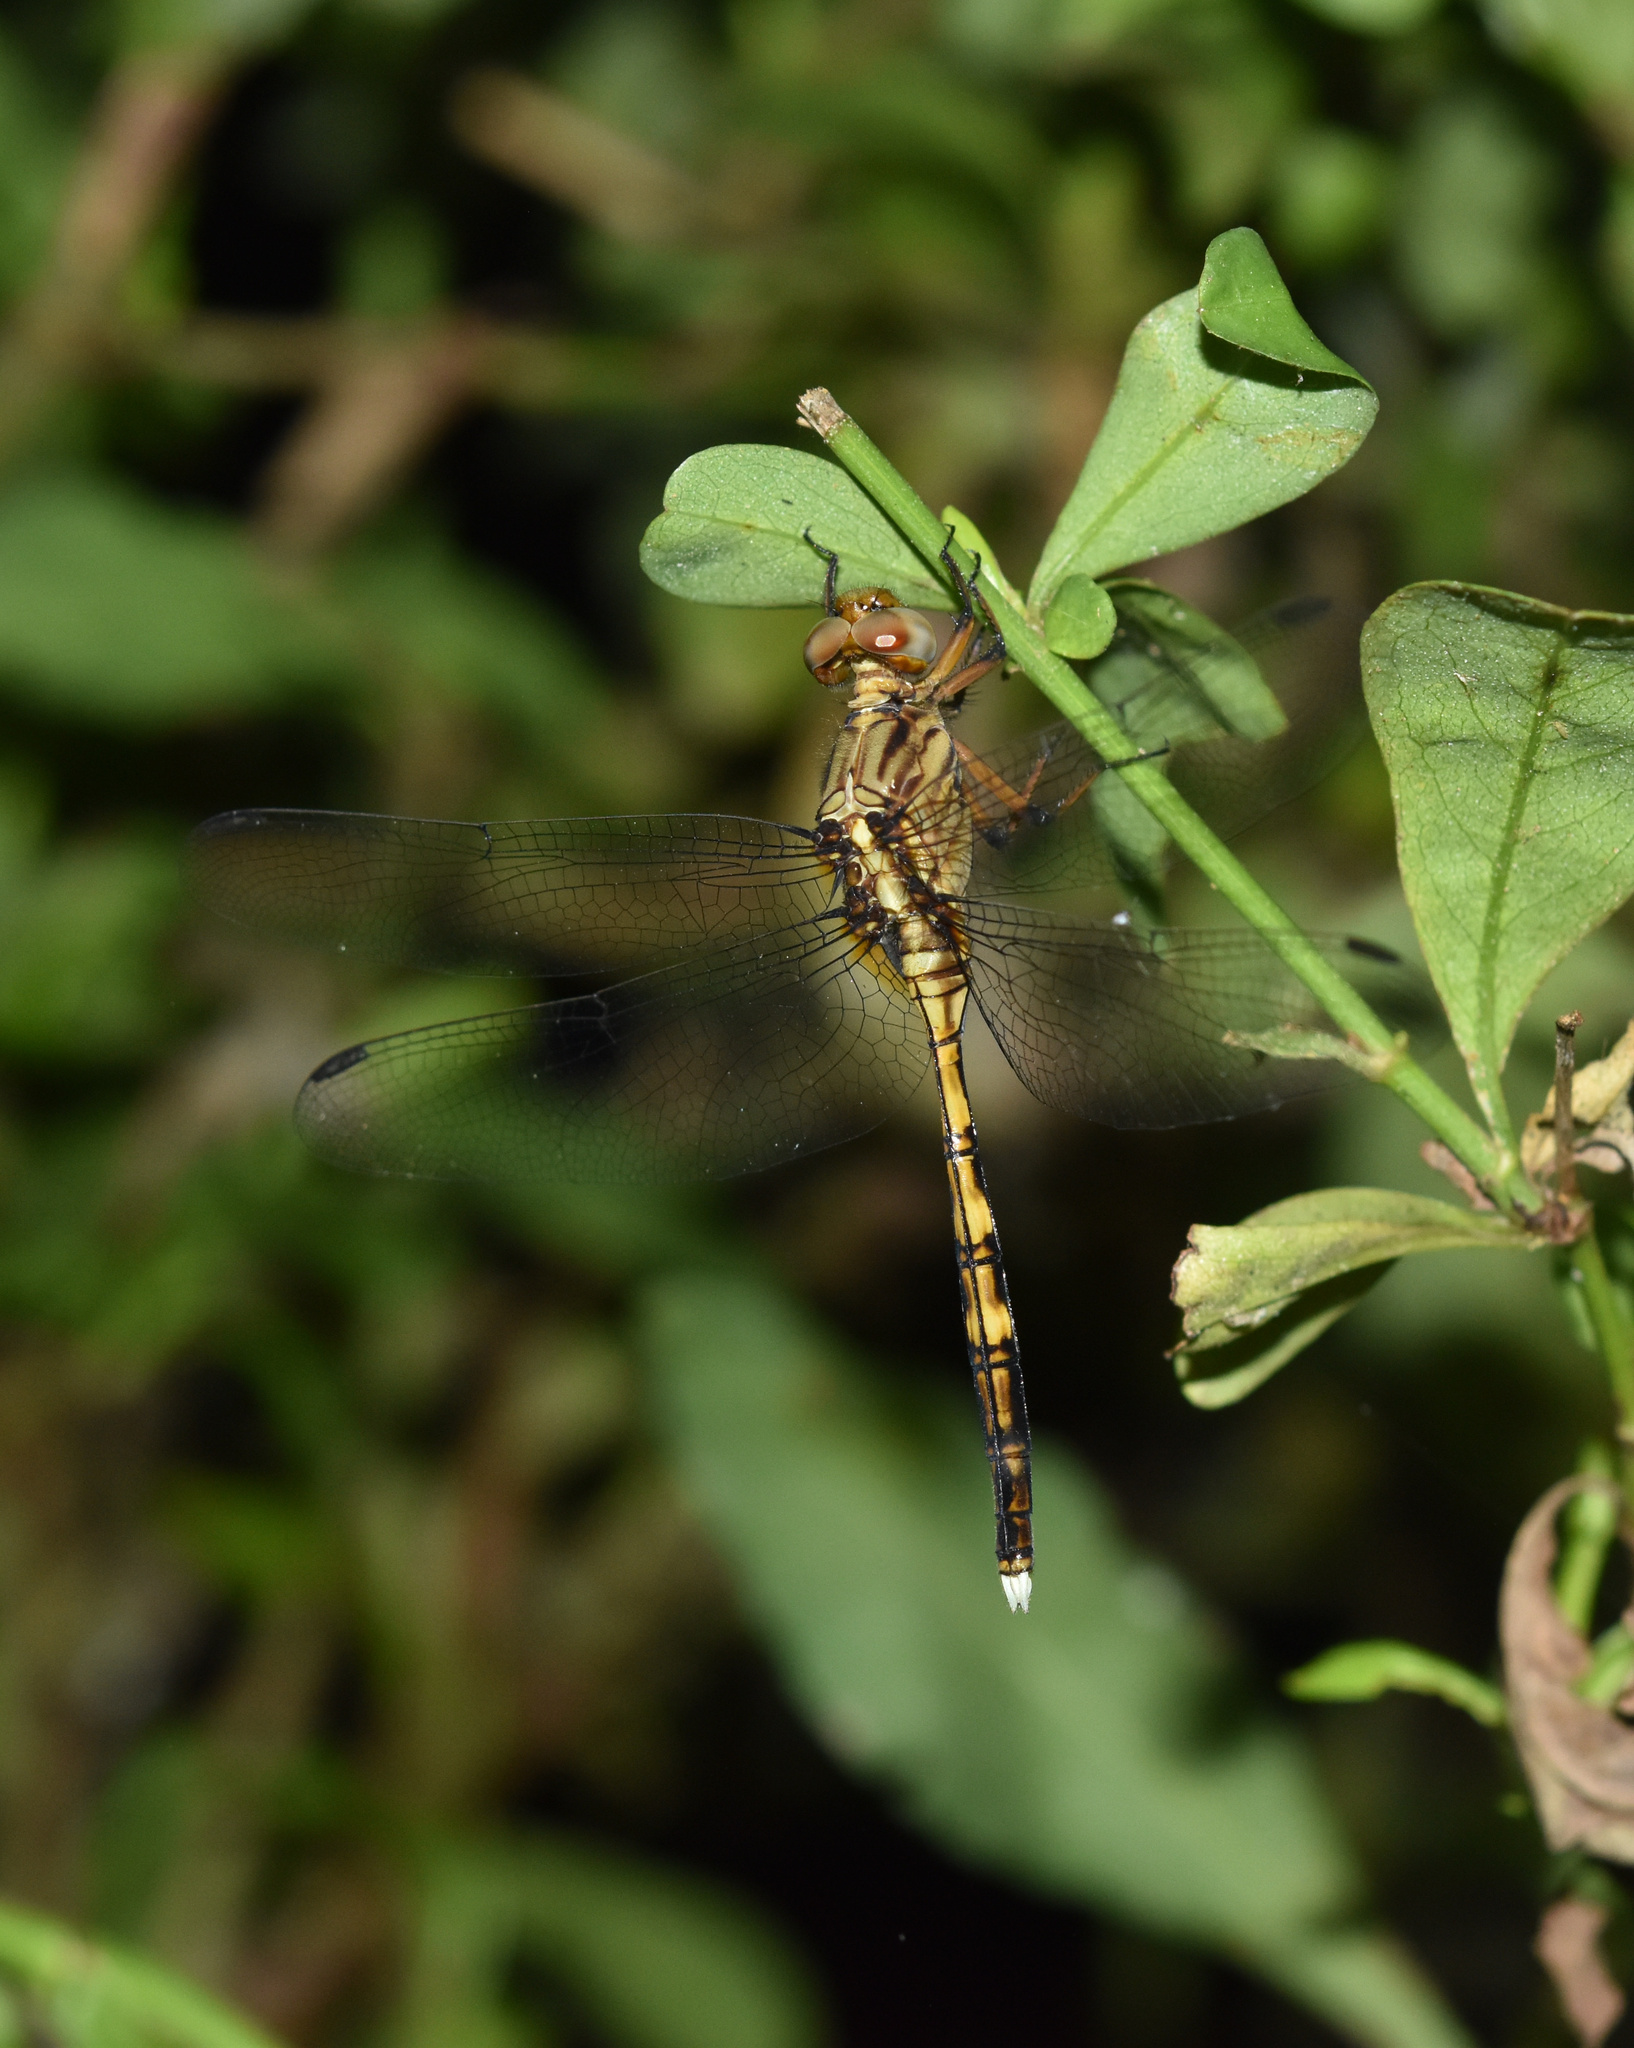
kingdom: Animalia
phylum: Arthropoda
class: Insecta
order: Odonata
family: Libellulidae
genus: Orthetrum
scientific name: Orthetrum julia
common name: Julia skimmer
